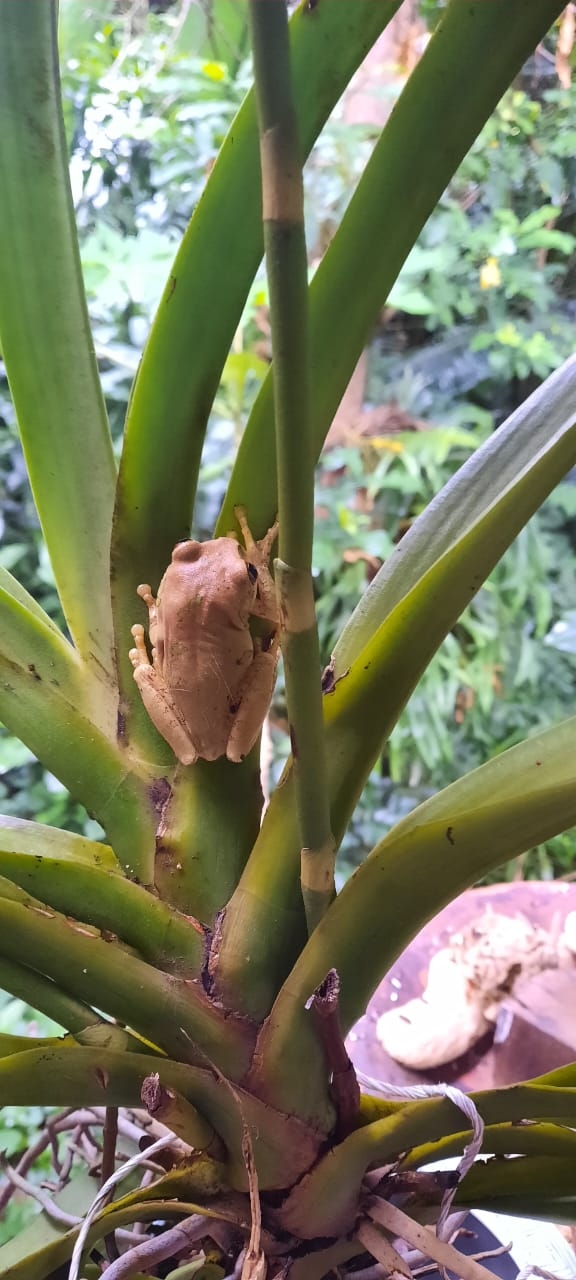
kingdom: Animalia
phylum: Chordata
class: Amphibia
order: Anura
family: Arthroleptidae
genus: Leptopelis
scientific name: Leptopelis natalensis
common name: Natal tree frog
